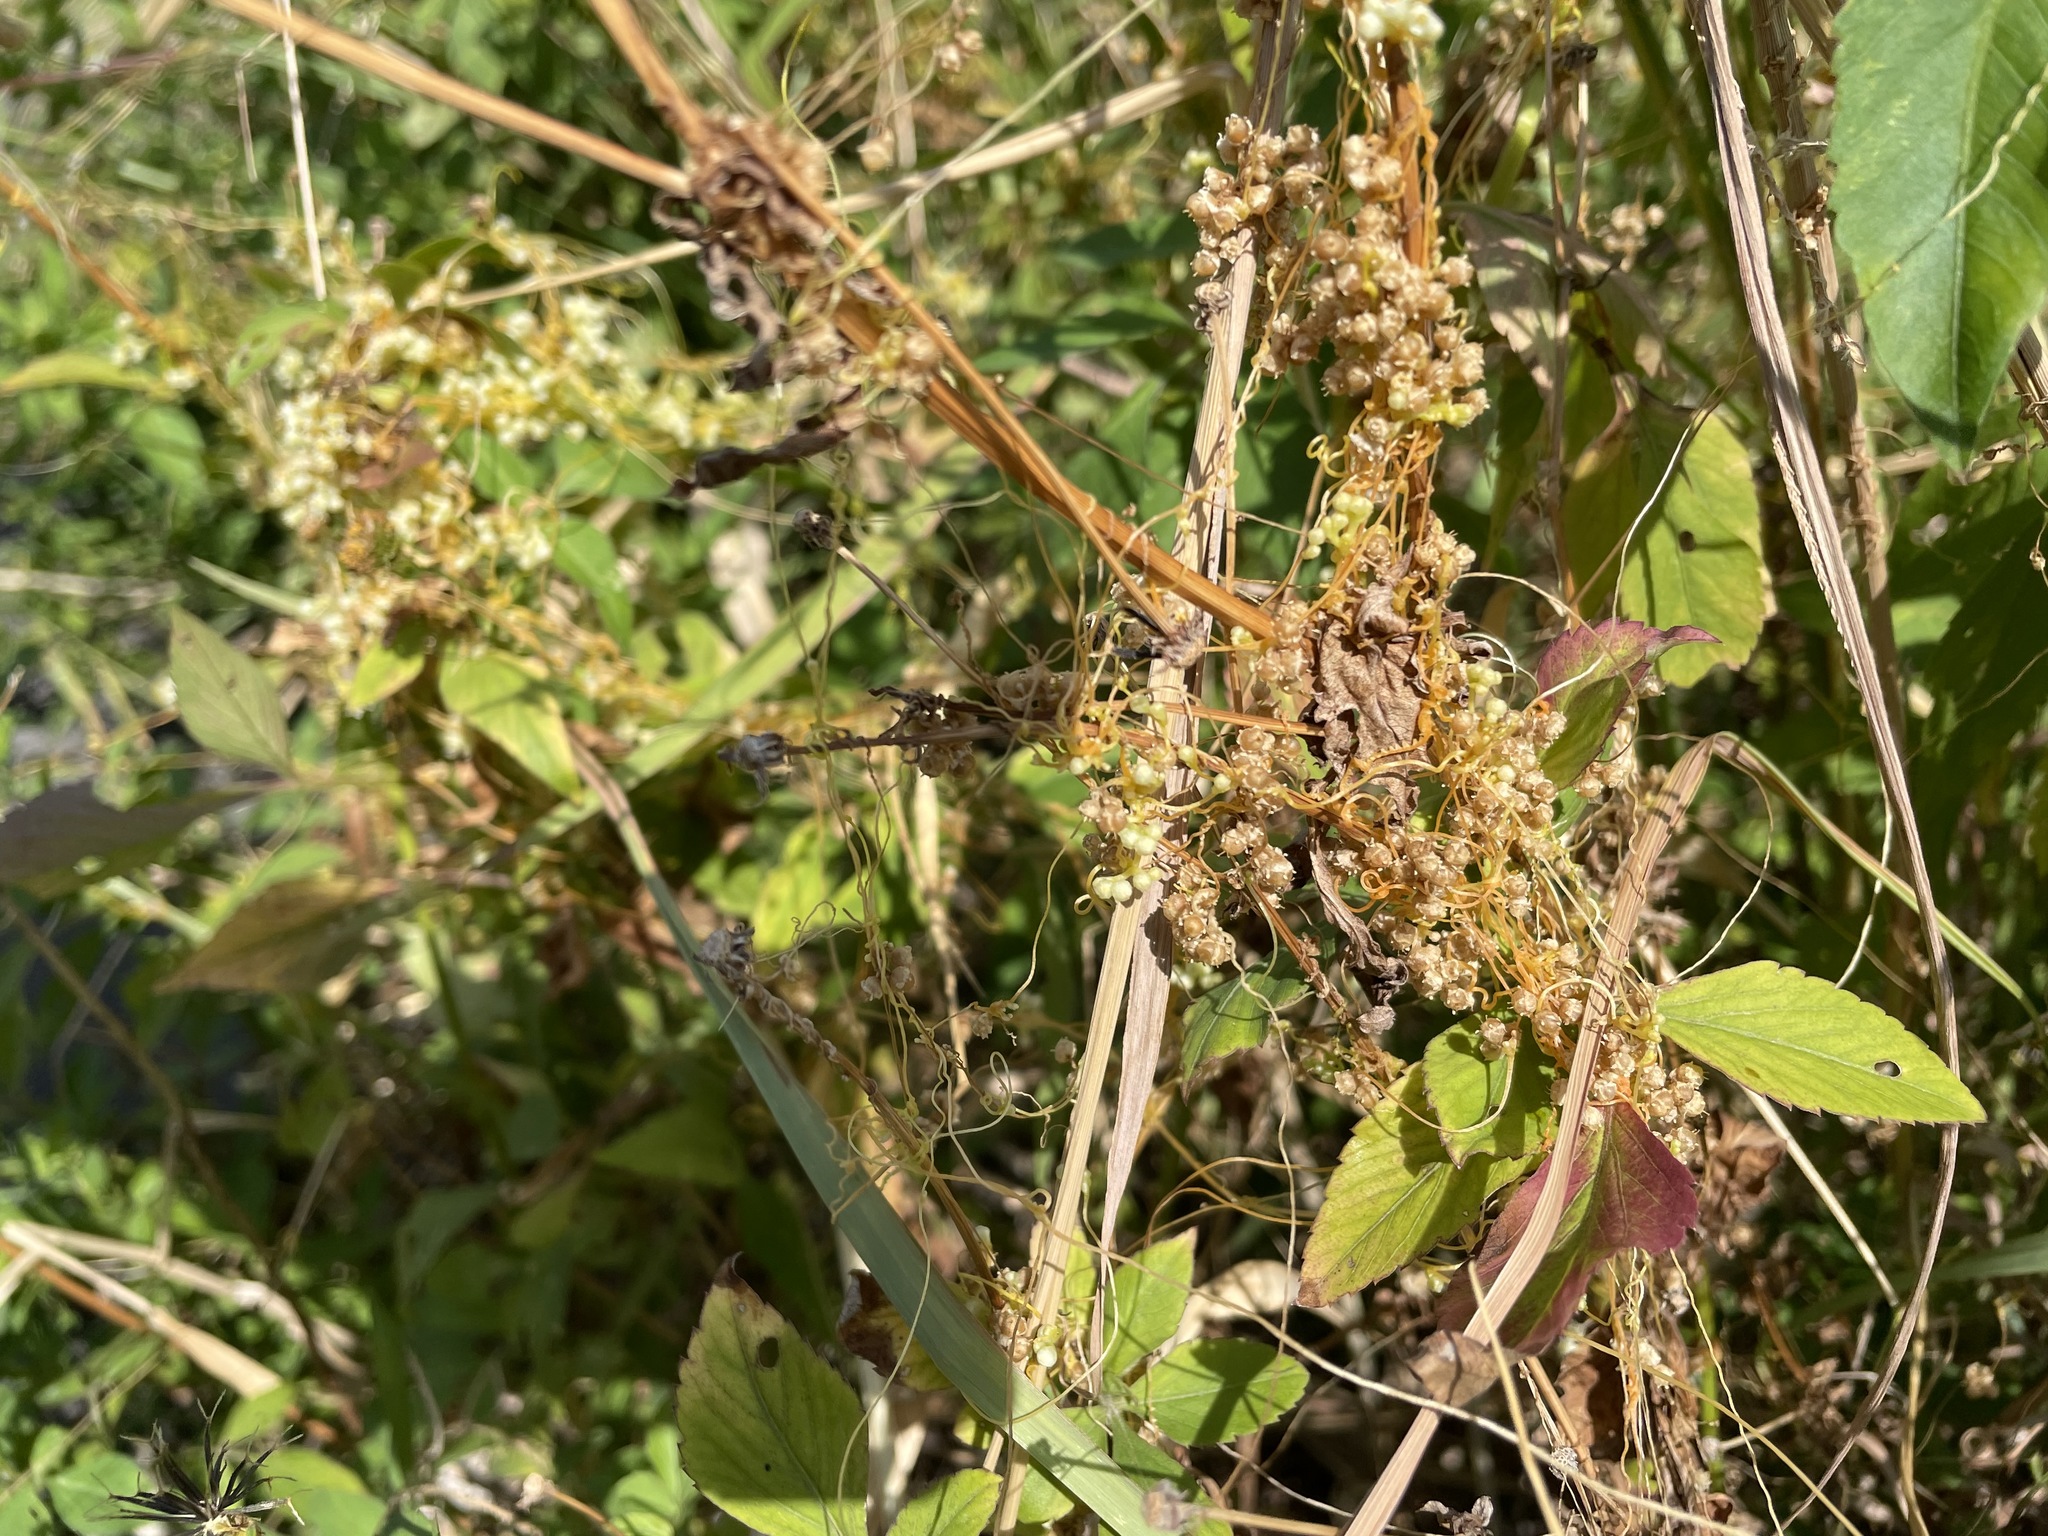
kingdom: Plantae
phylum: Tracheophyta
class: Magnoliopsida
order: Solanales
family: Convolvulaceae
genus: Cuscuta
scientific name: Cuscuta campestris
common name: Yellow dodder
